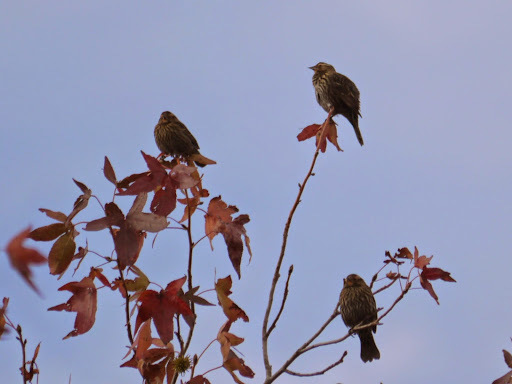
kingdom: Animalia
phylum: Chordata
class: Aves
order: Passeriformes
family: Icteridae
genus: Agelaius
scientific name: Agelaius phoeniceus
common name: Red-winged blackbird
